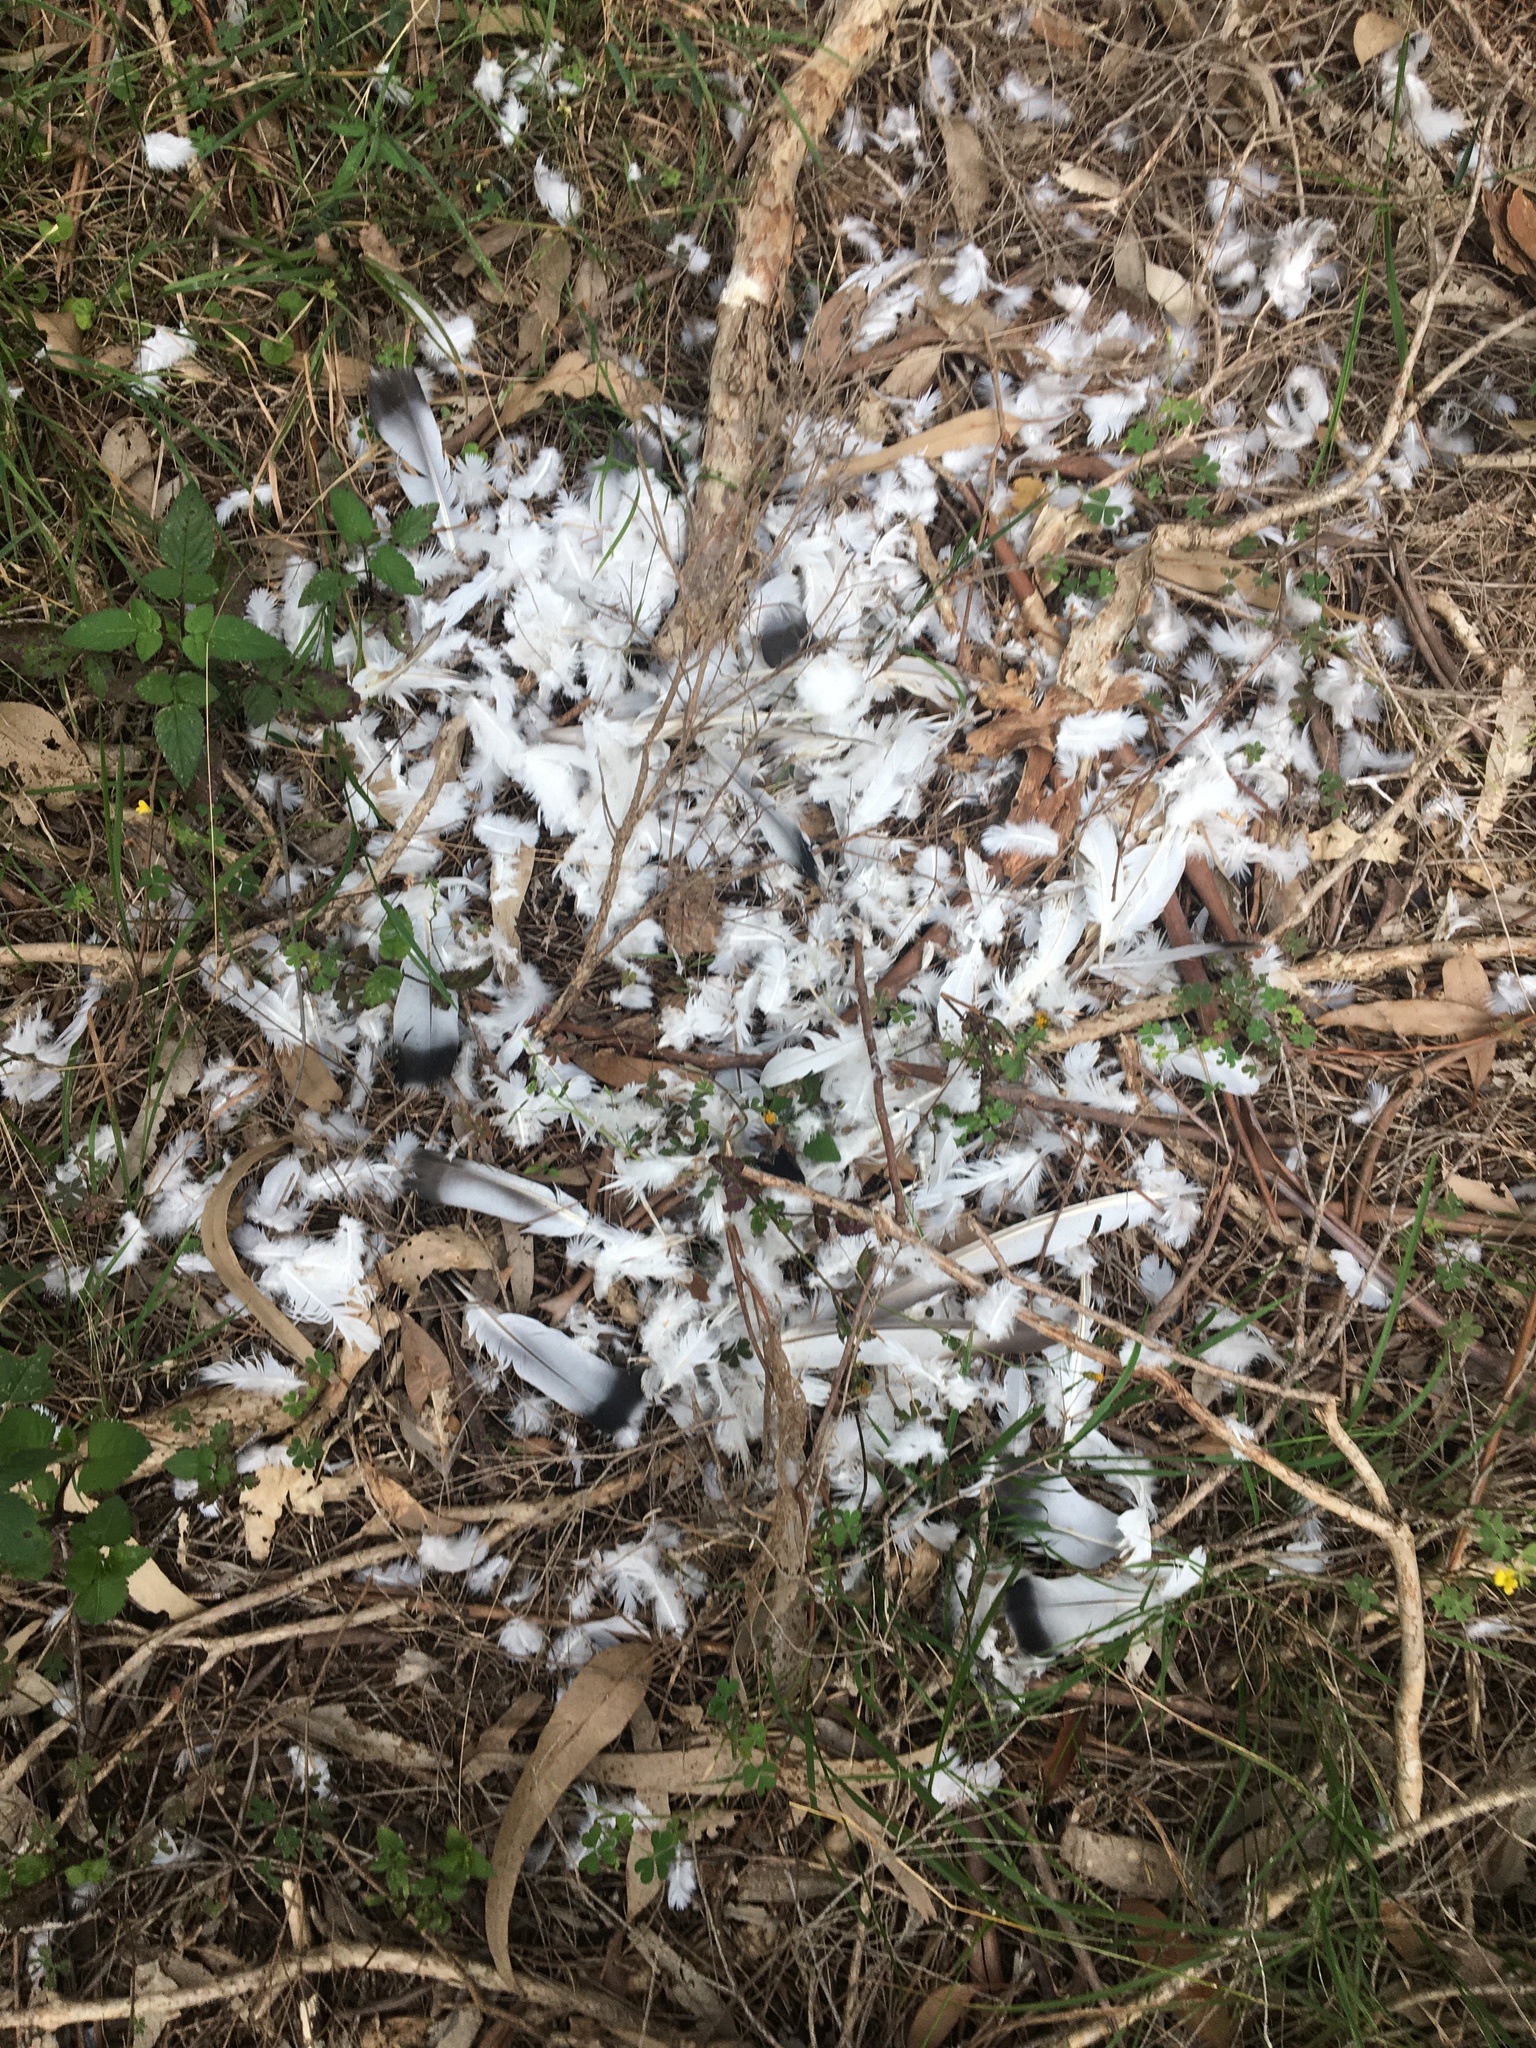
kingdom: Animalia
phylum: Chordata
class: Aves
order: Columbiformes
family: Columbidae
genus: Columba
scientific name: Columba livia
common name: Rock pigeon
